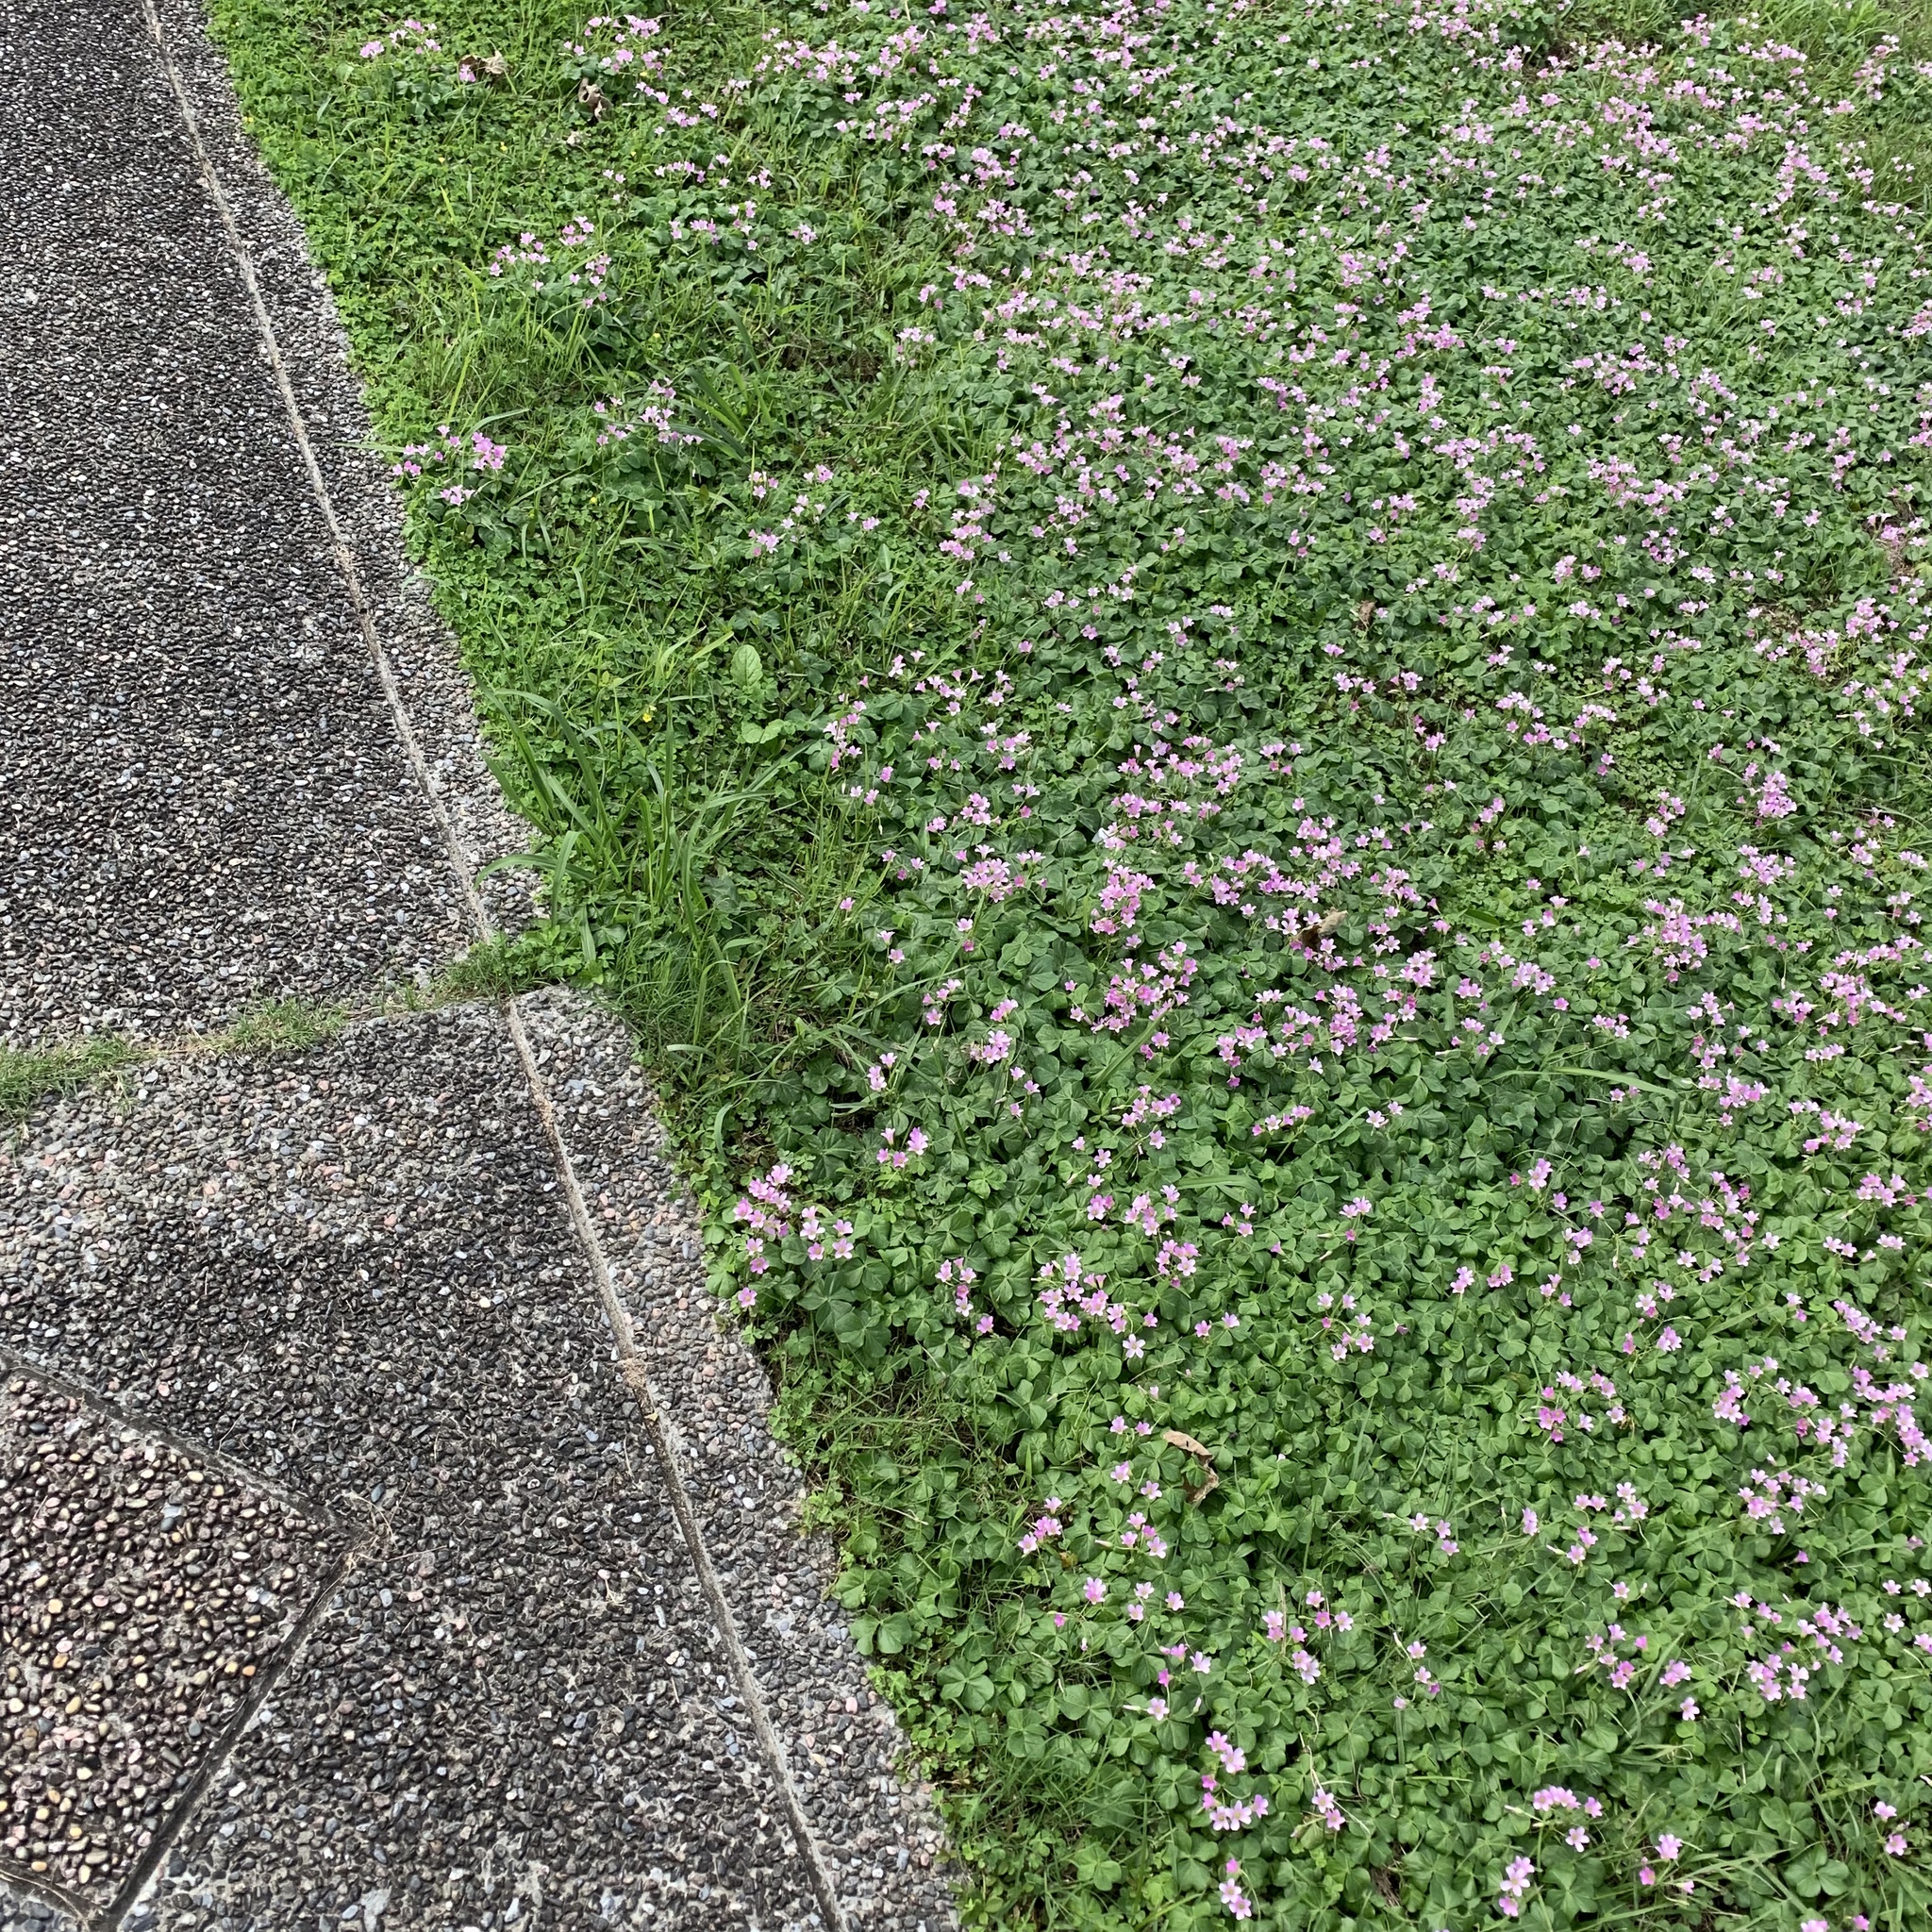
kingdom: Plantae
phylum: Tracheophyta
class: Magnoliopsida
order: Oxalidales
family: Oxalidaceae
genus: Oxalis
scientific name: Oxalis debilis
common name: Large-flowered pink-sorrel
